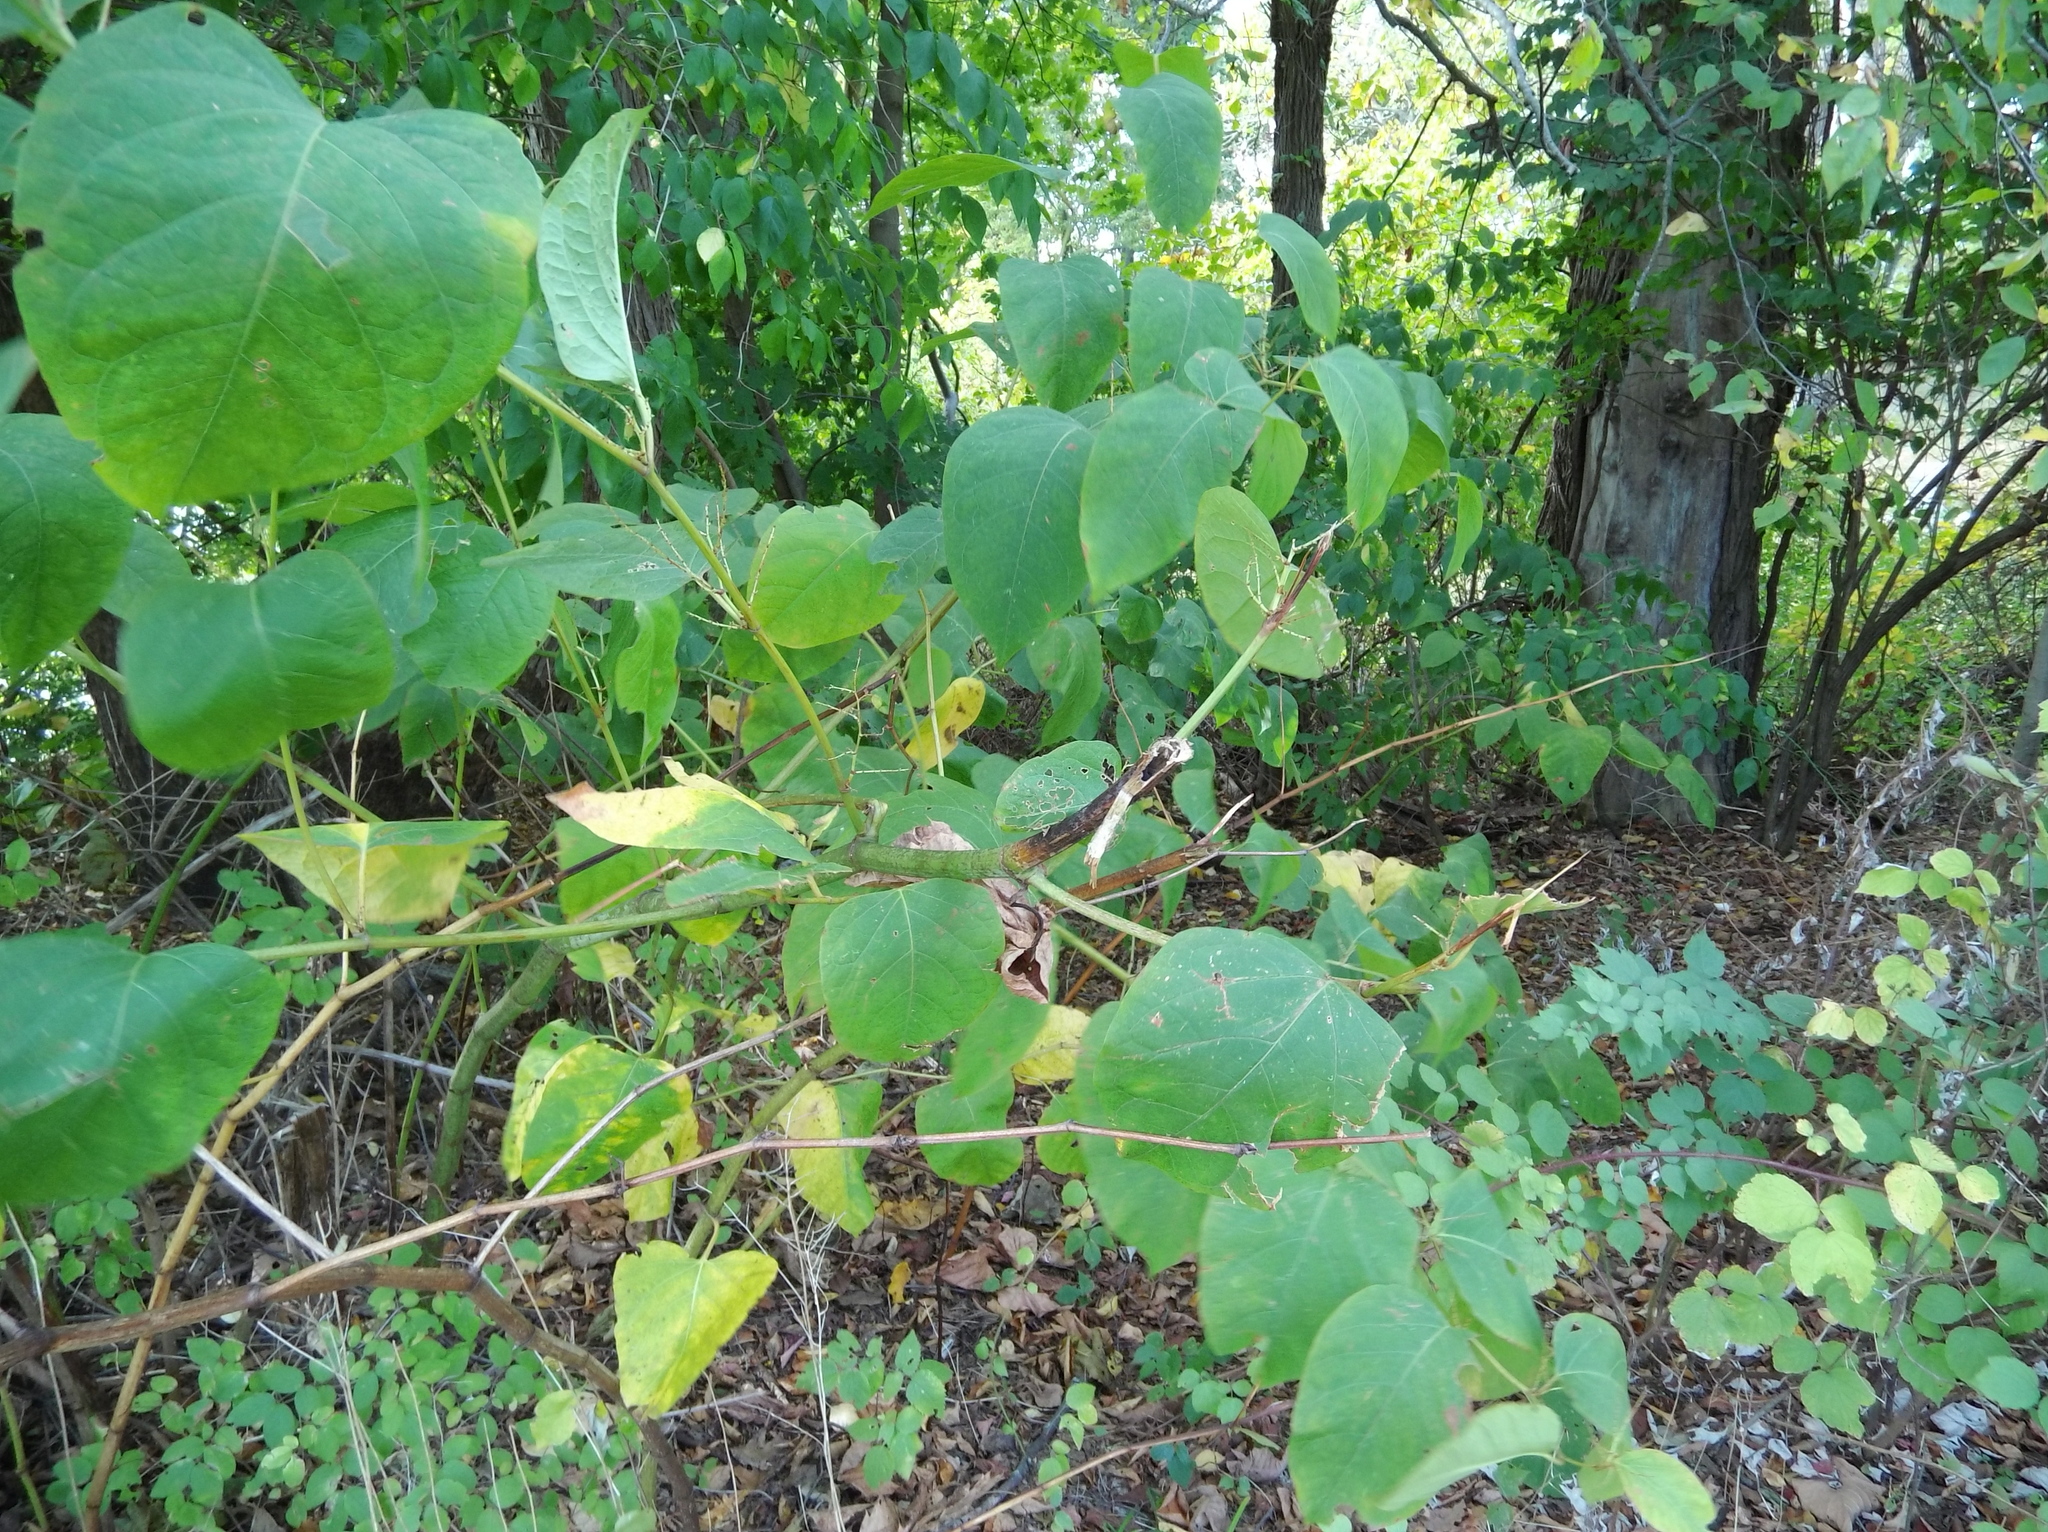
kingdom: Plantae
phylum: Tracheophyta
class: Magnoliopsida
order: Caryophyllales
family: Polygonaceae
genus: Reynoutria
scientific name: Reynoutria japonica
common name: Japanese knotweed
